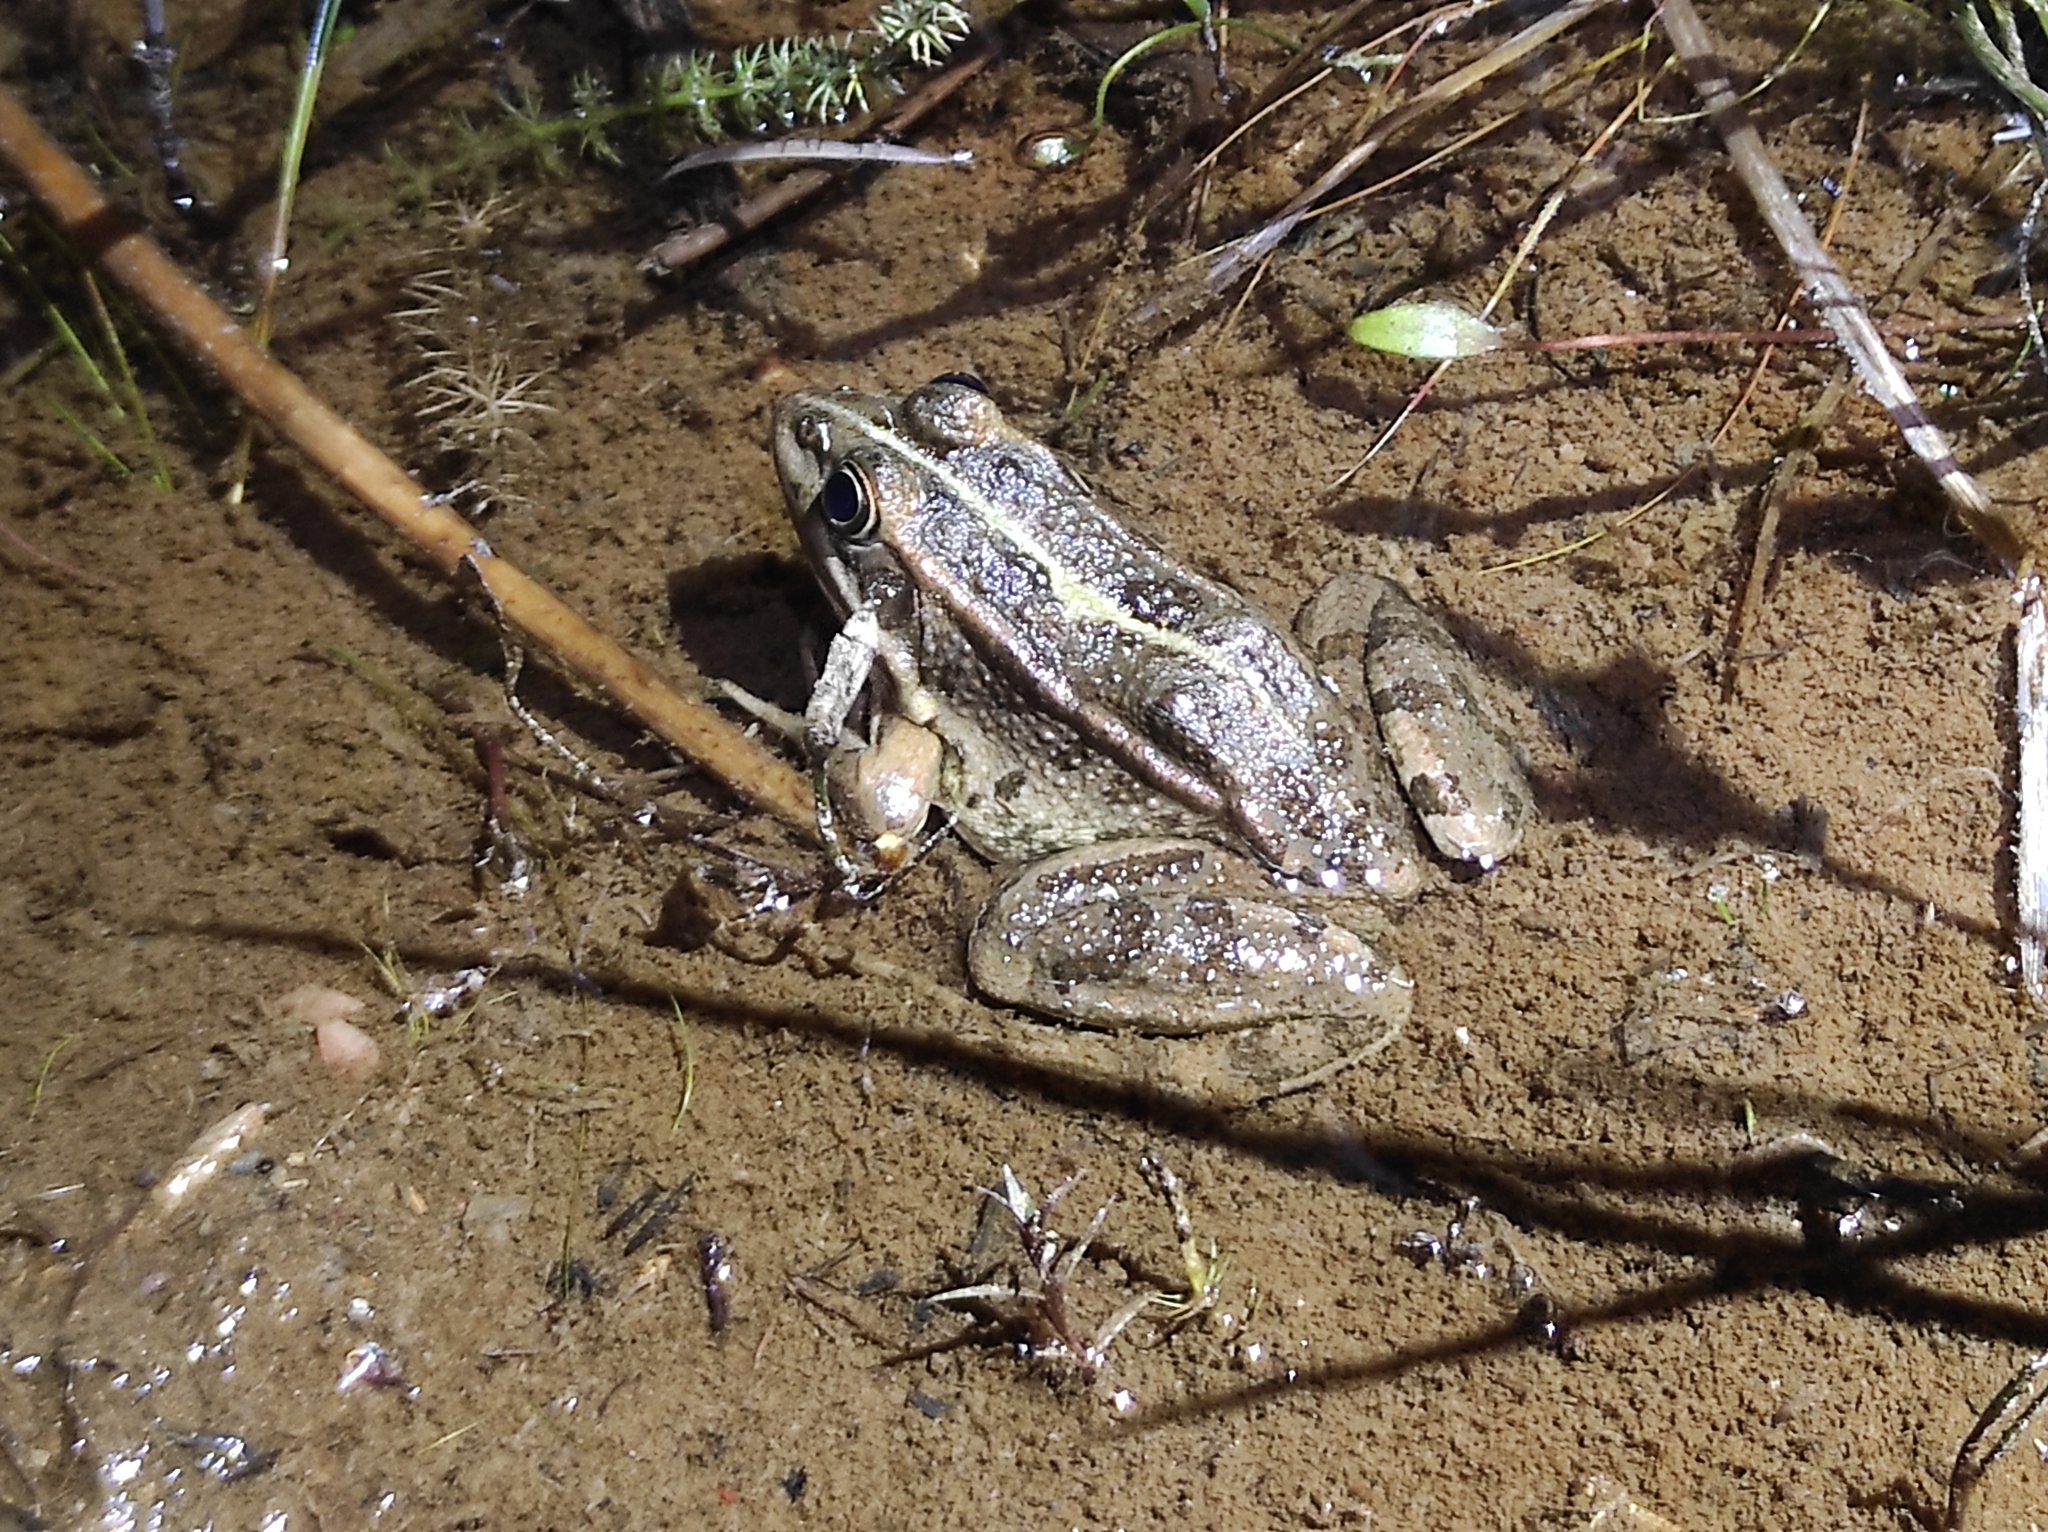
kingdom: Animalia
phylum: Chordata
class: Amphibia
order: Anura
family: Ranidae
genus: Pelophylax
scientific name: Pelophylax perezi
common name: Perez's frog
